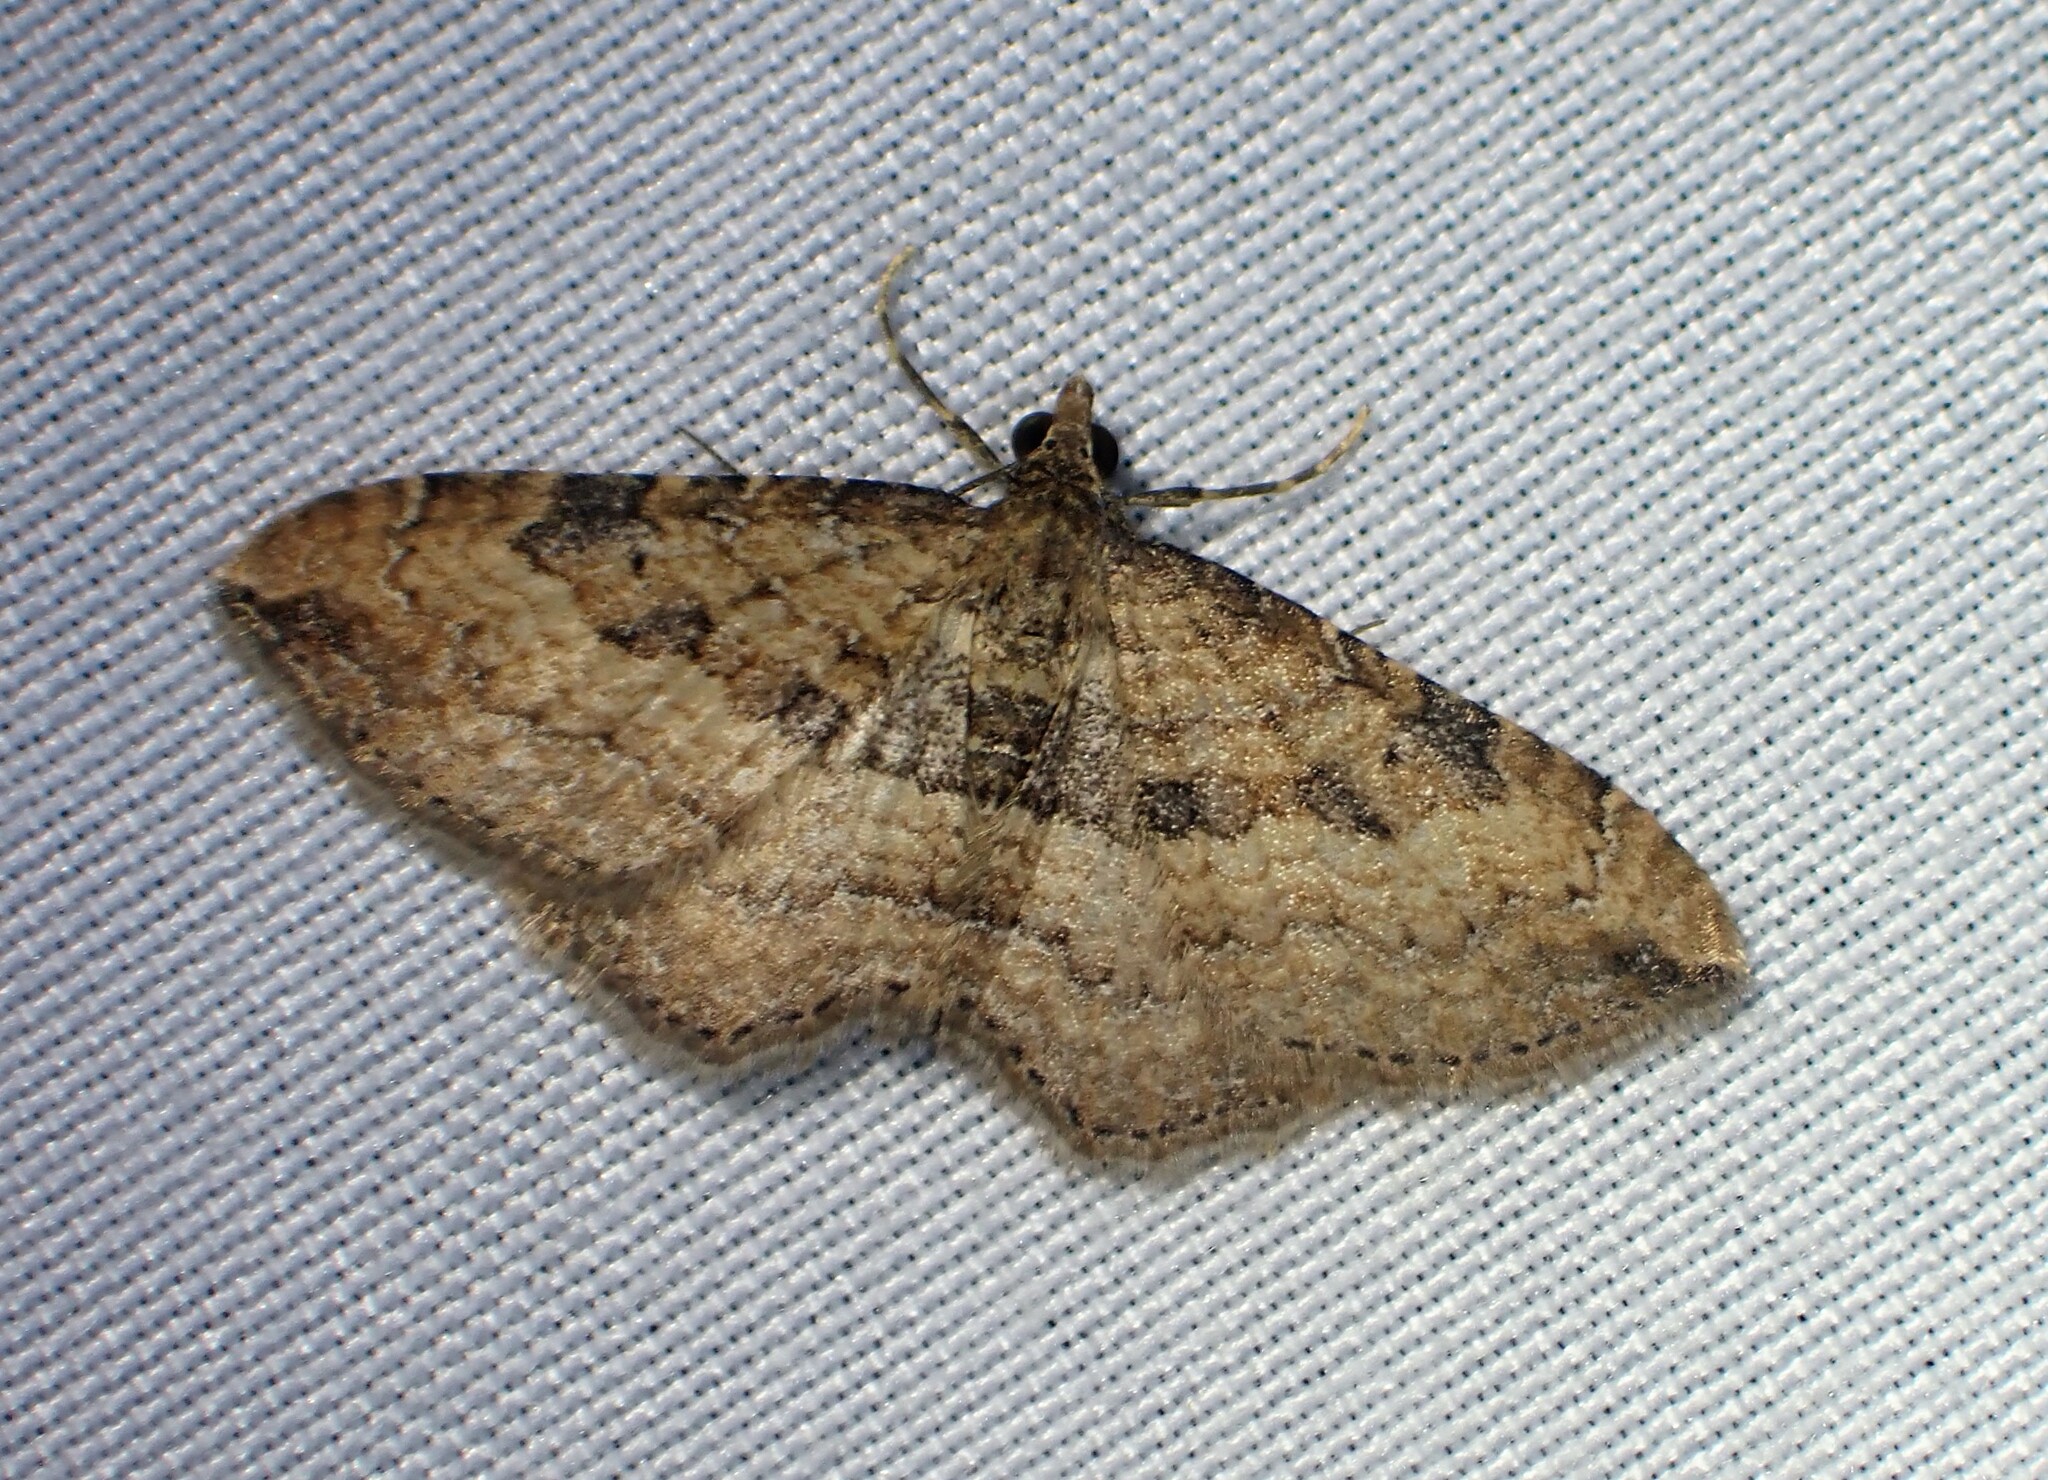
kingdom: Animalia
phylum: Arthropoda
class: Insecta
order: Lepidoptera
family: Geometridae
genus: Orthonama
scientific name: Orthonama obstipata
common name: The gem
